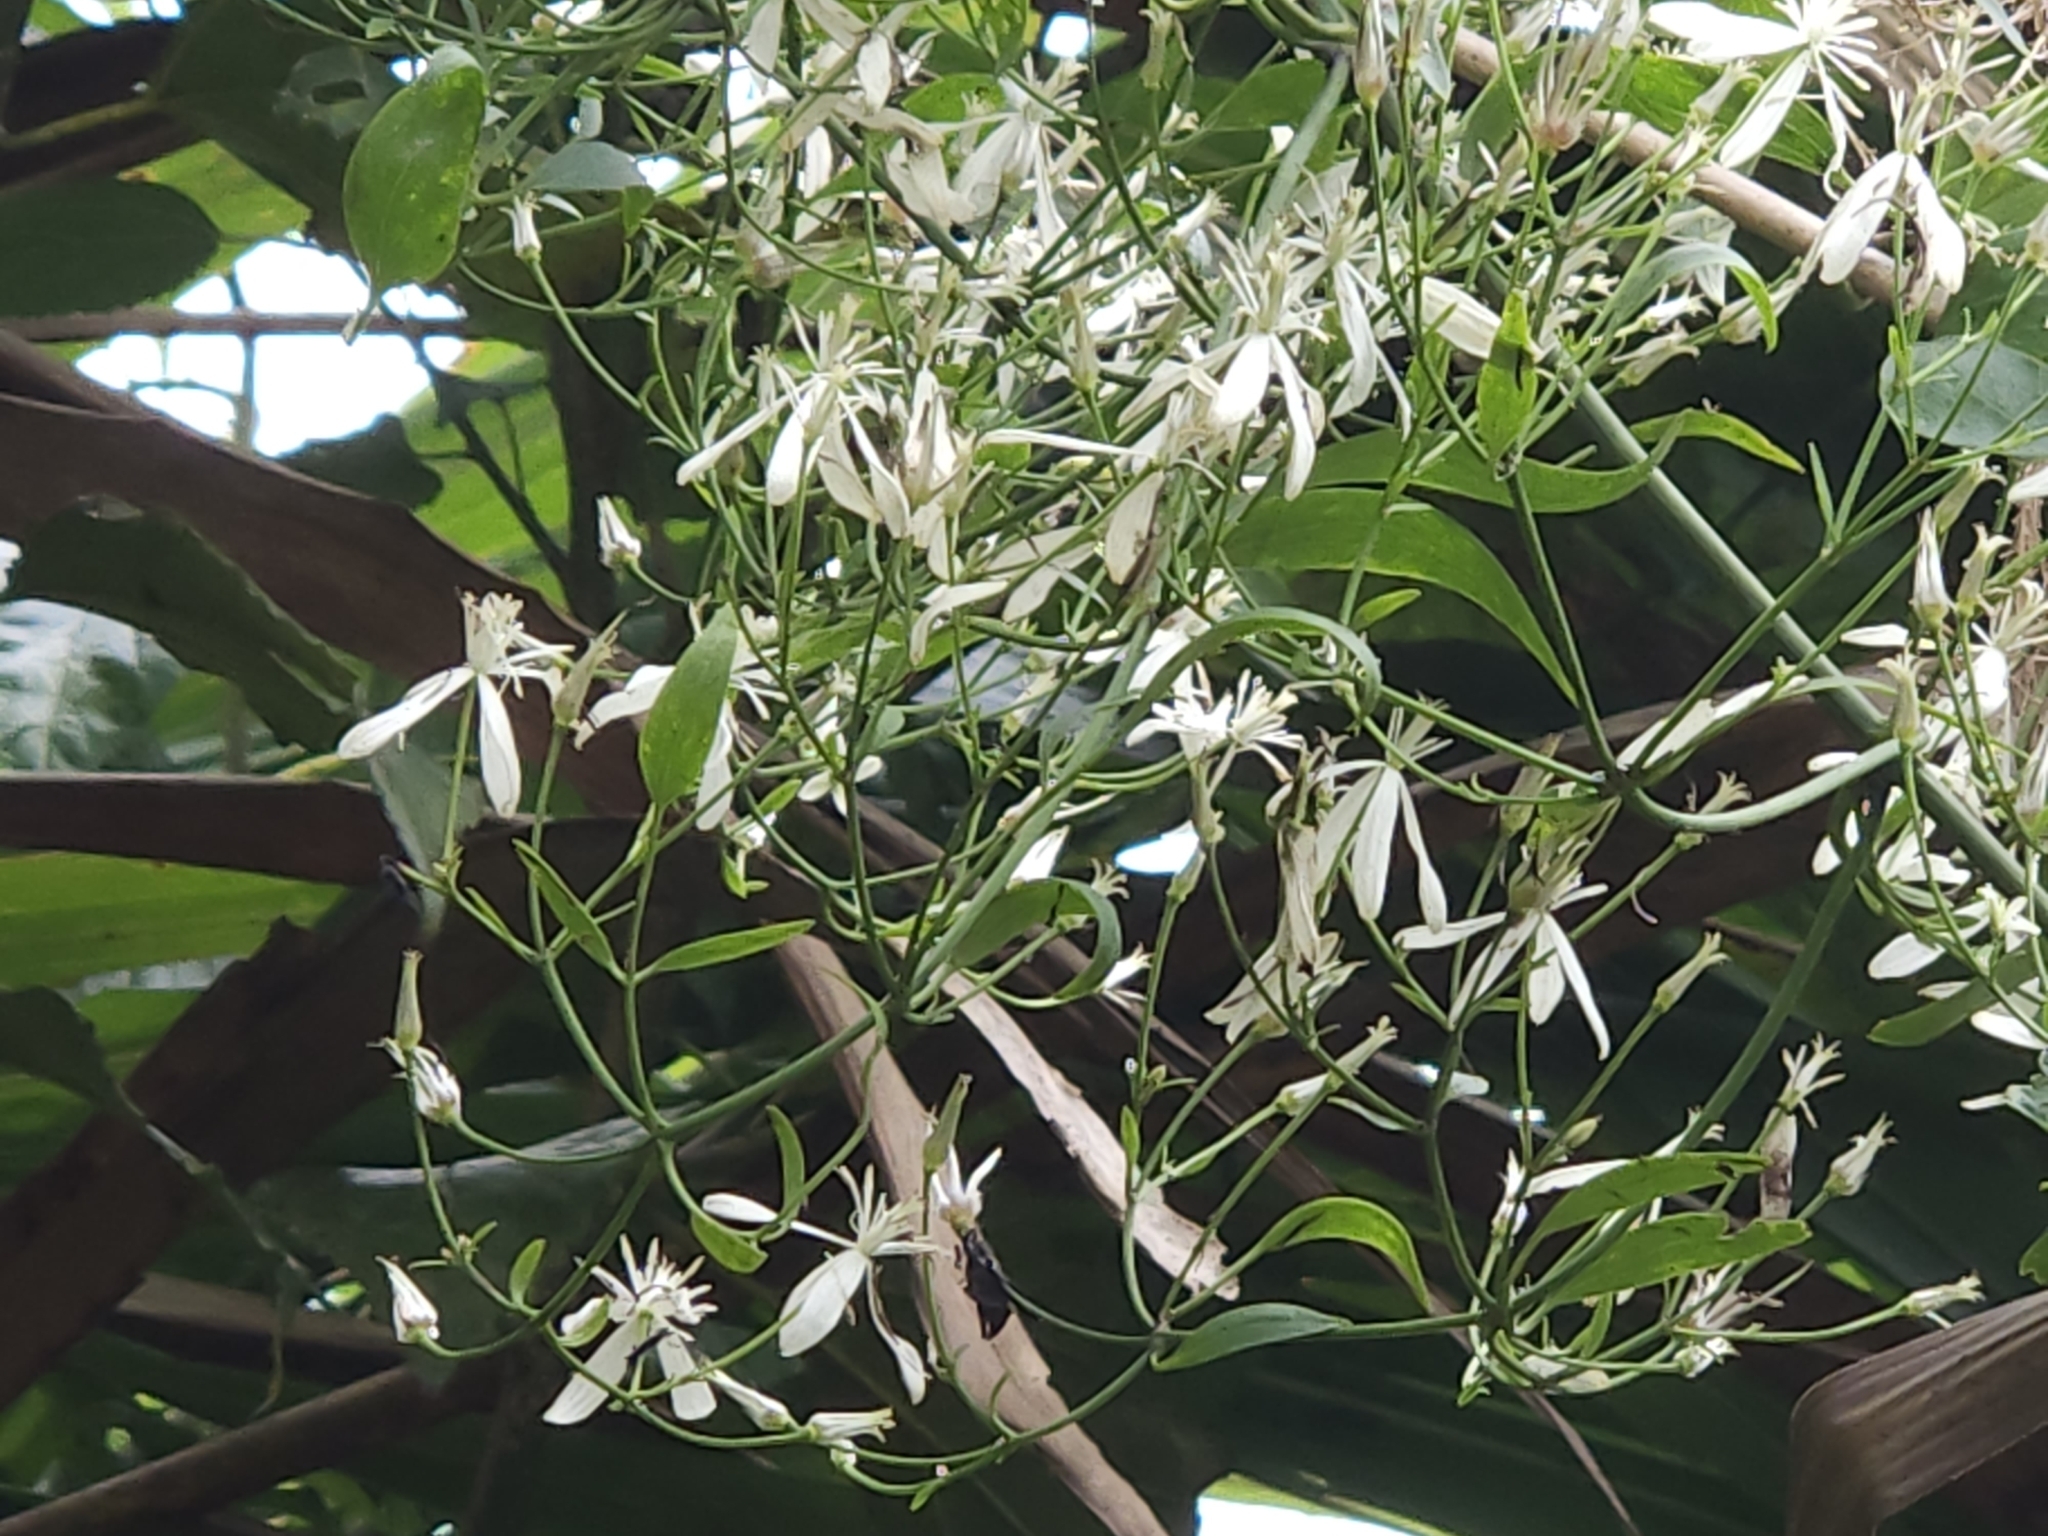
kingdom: Plantae
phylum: Tracheophyta
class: Magnoliopsida
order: Ranunculales
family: Ranunculaceae
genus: Clematis
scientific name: Clematis chinensis
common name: Chinese clematis
